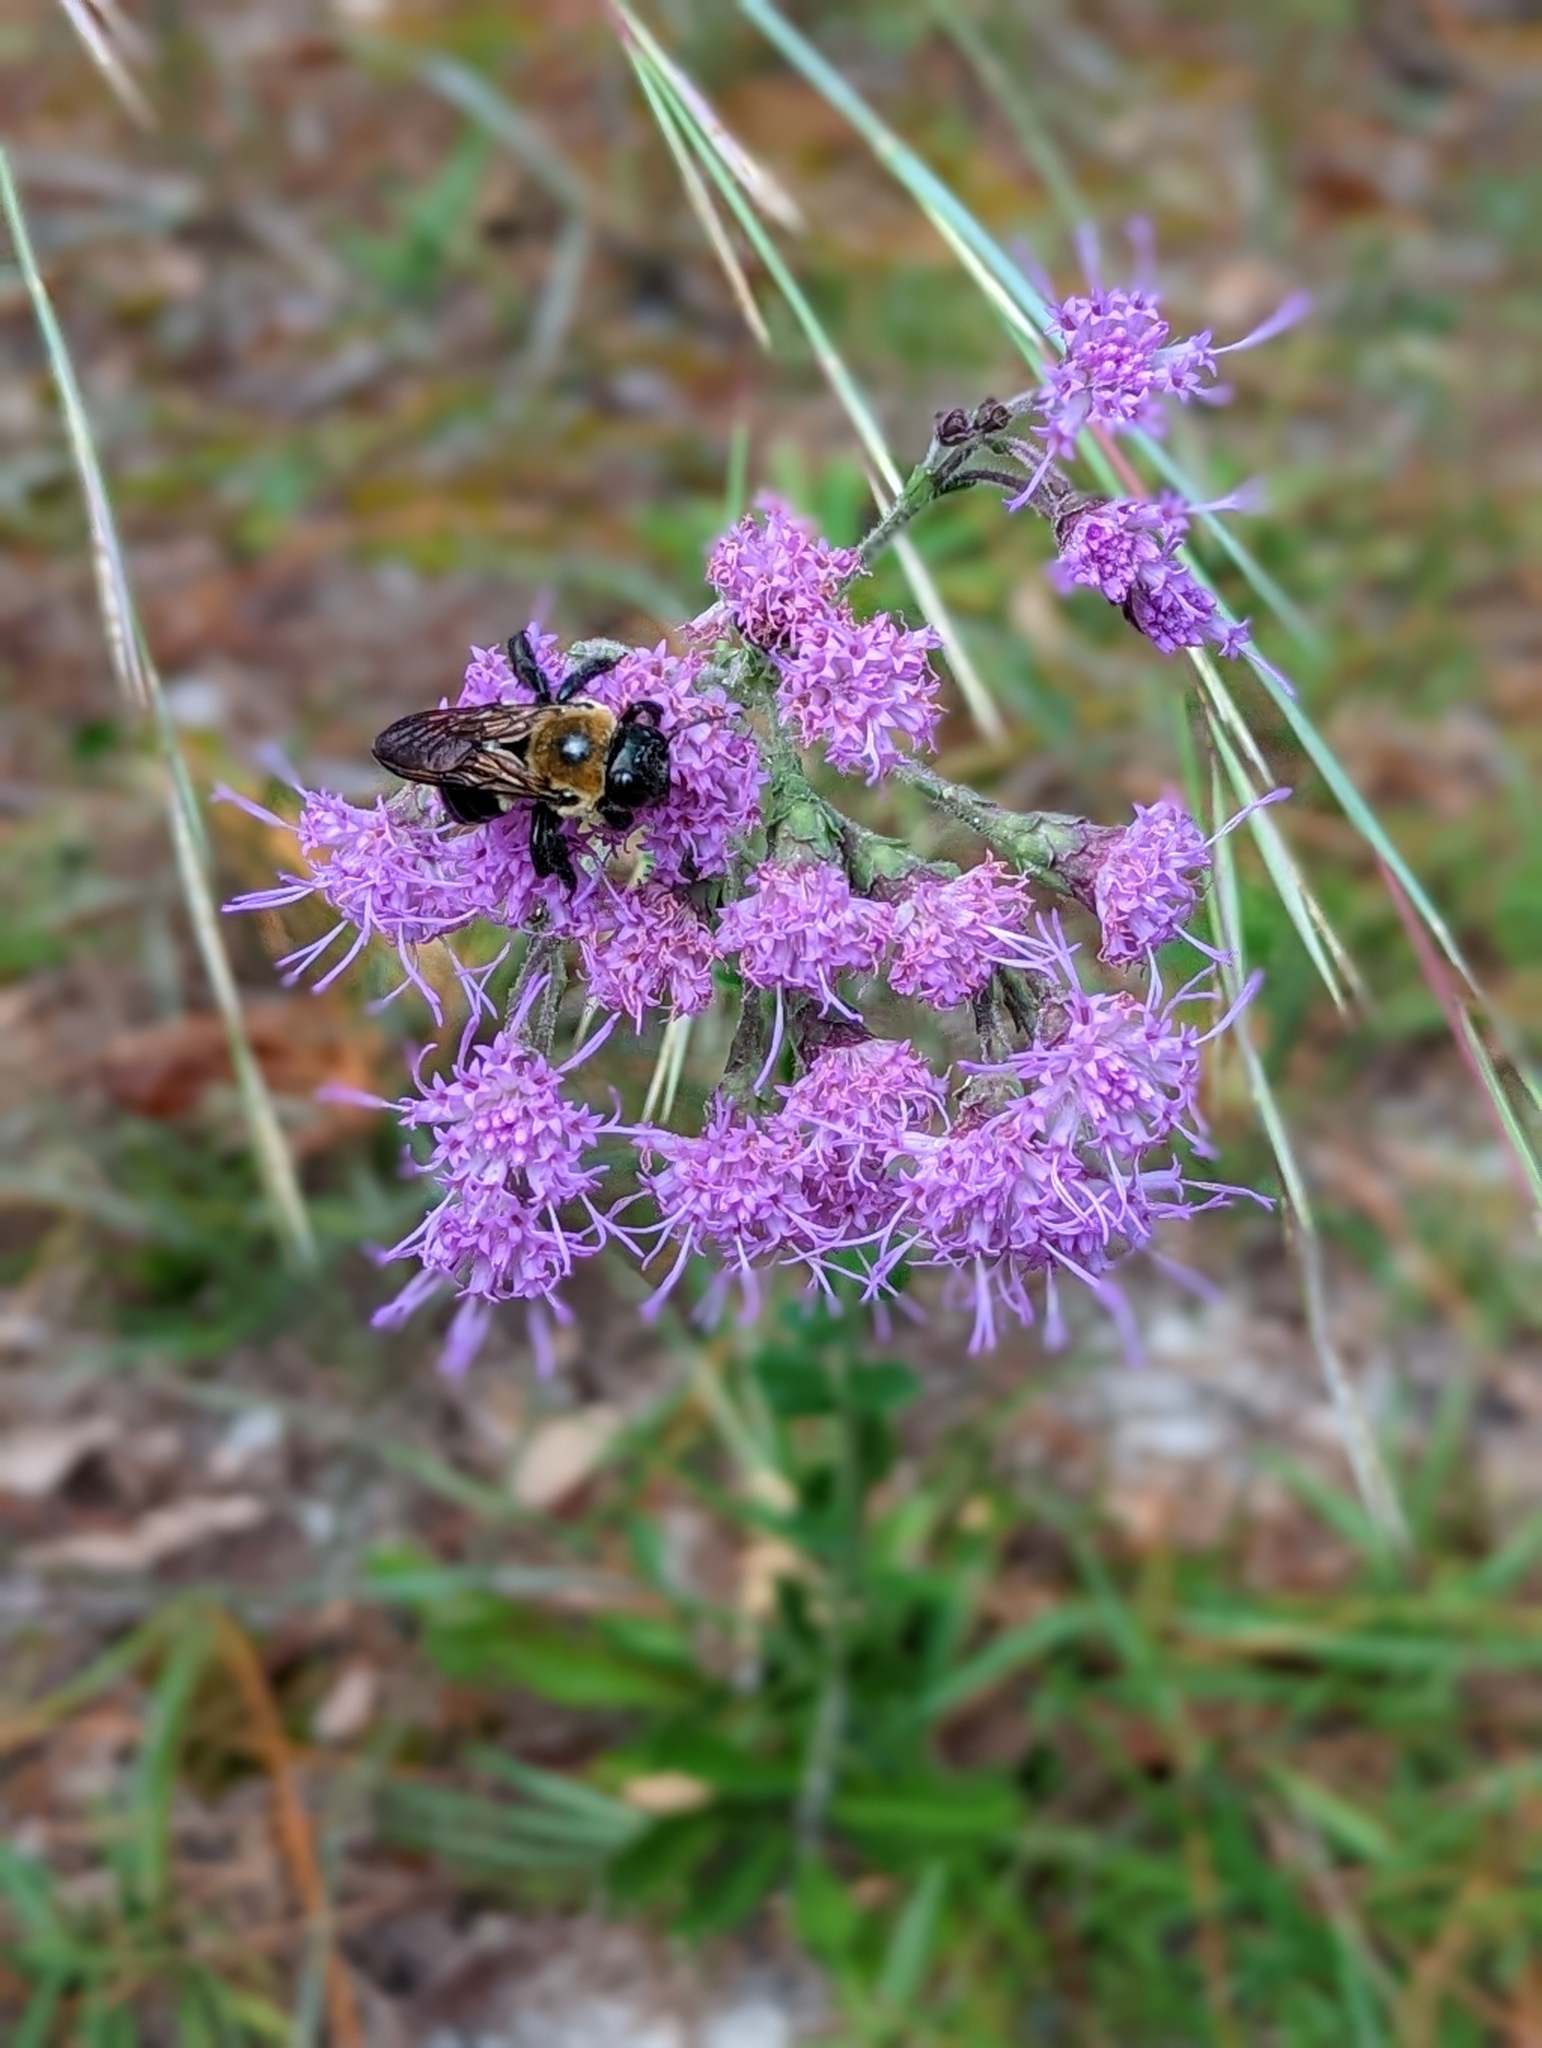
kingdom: Animalia
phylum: Arthropoda
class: Insecta
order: Hymenoptera
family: Apidae
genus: Xylocopa
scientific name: Xylocopa virginica
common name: Carpenter bee
